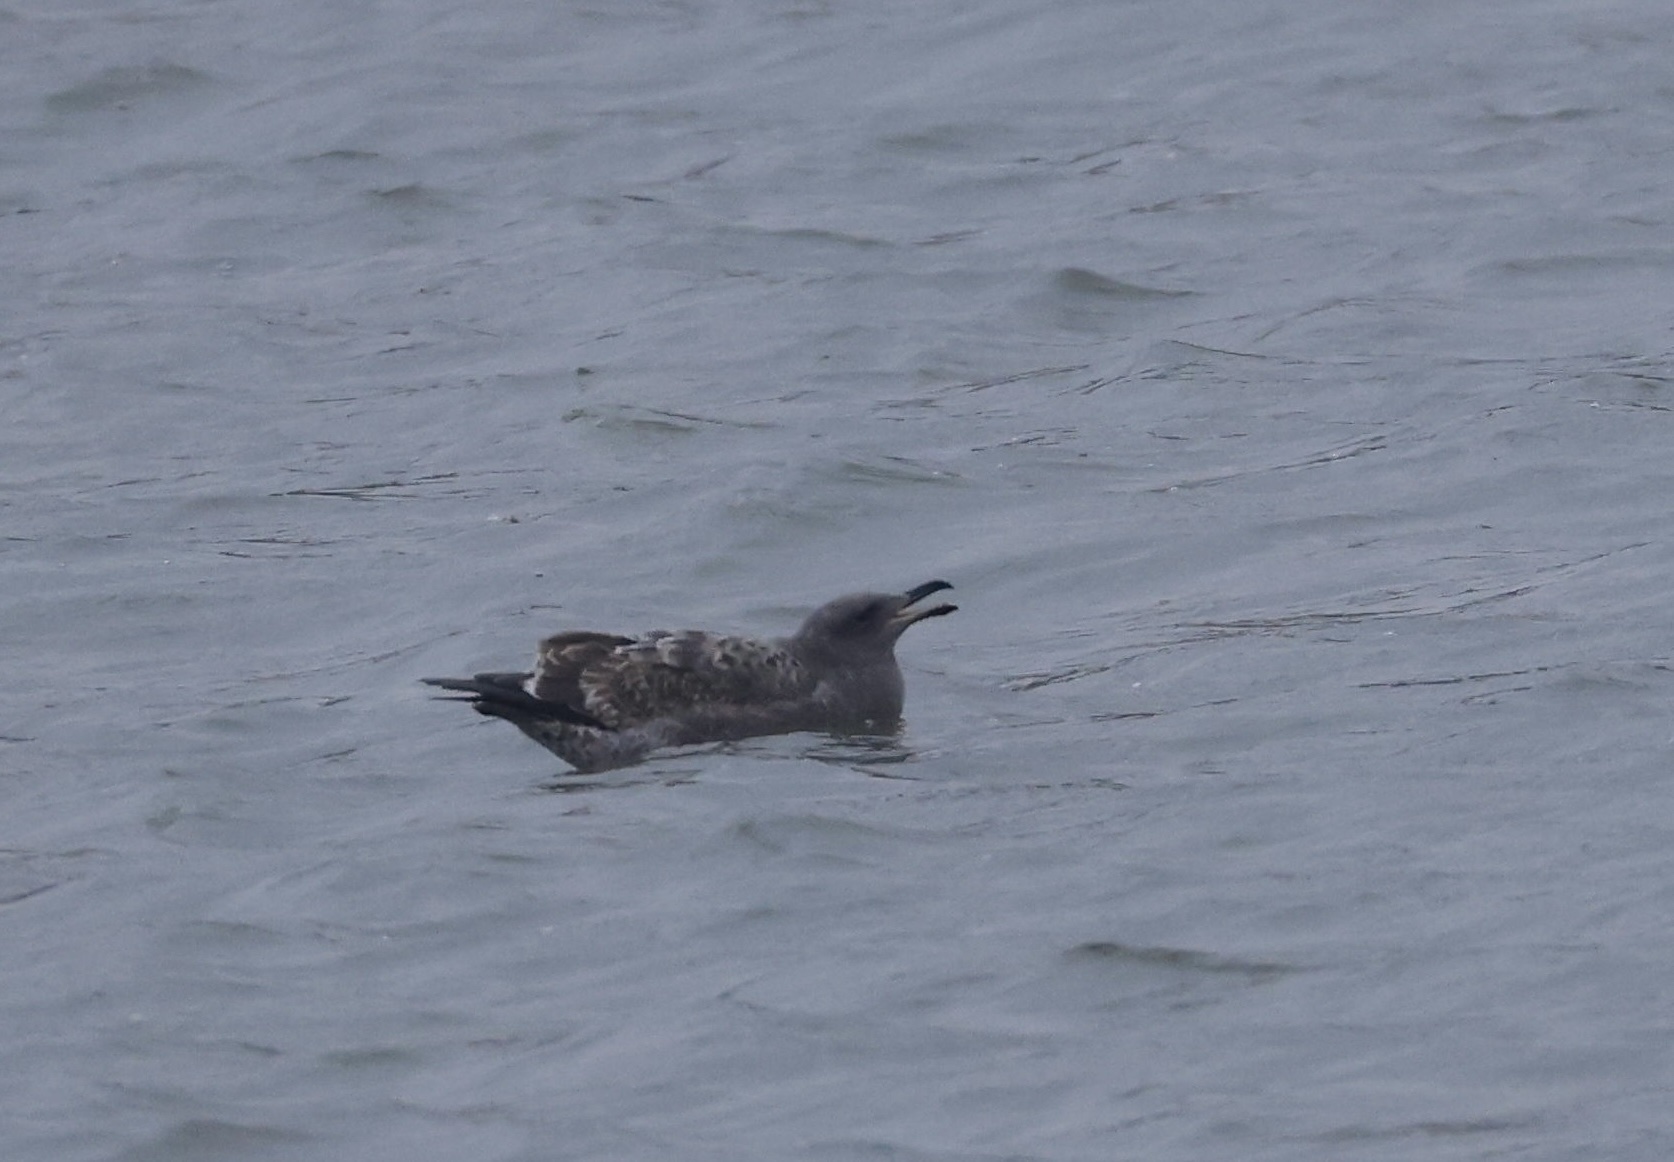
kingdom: Animalia
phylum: Chordata
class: Aves
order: Charadriiformes
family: Laridae
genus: Larus
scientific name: Larus occidentalis
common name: Western gull
